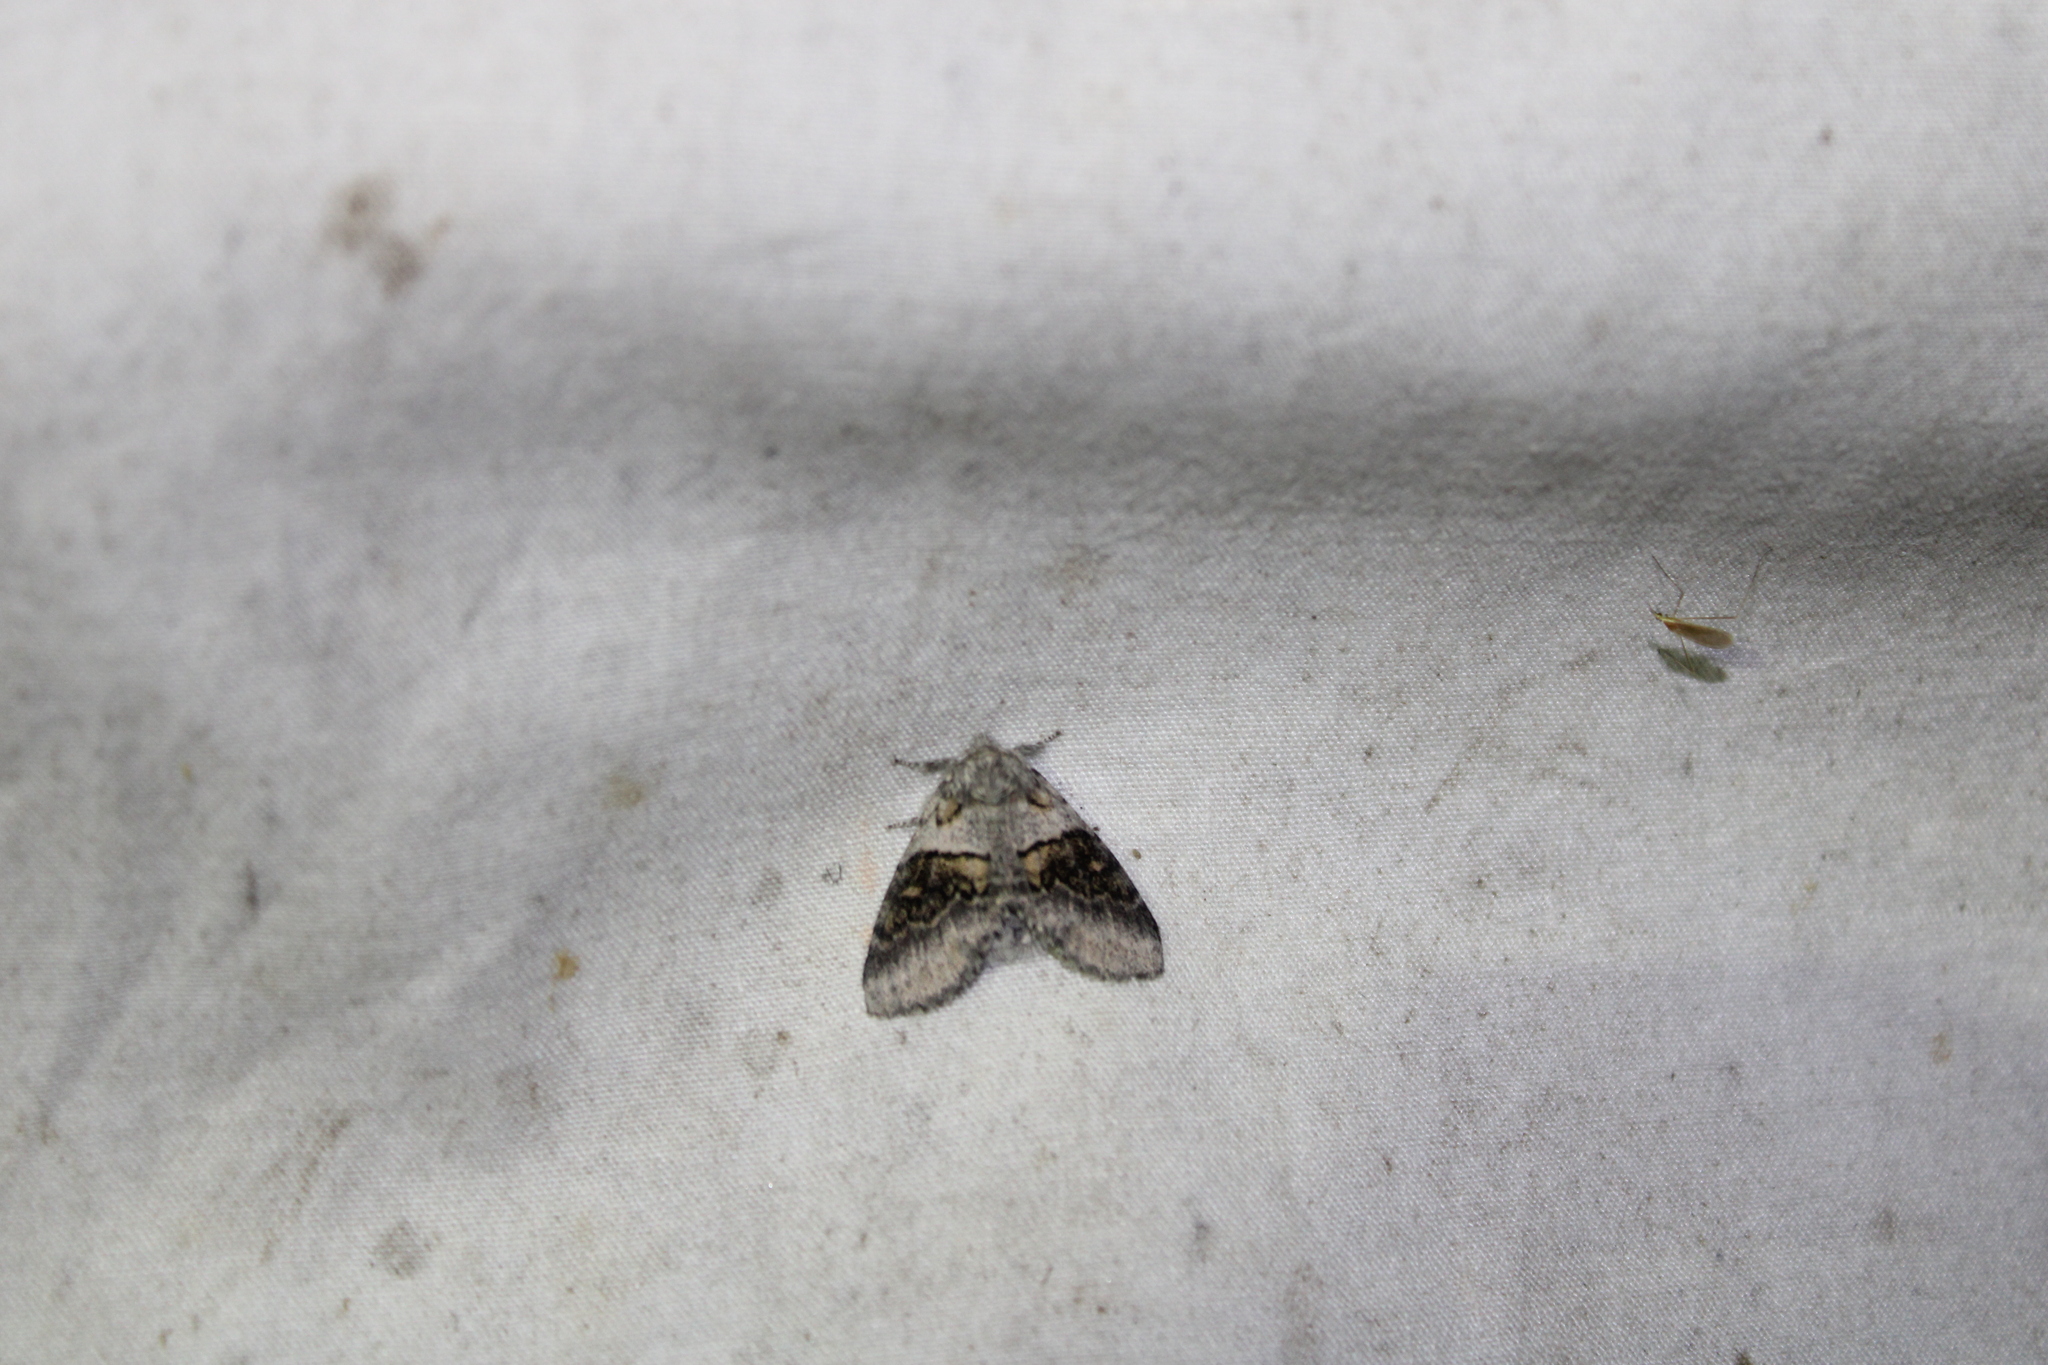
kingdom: Animalia
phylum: Arthropoda
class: Insecta
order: Lepidoptera
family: Notodontidae
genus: Gluphisia
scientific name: Gluphisia septentrionis
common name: Common gluphisia
